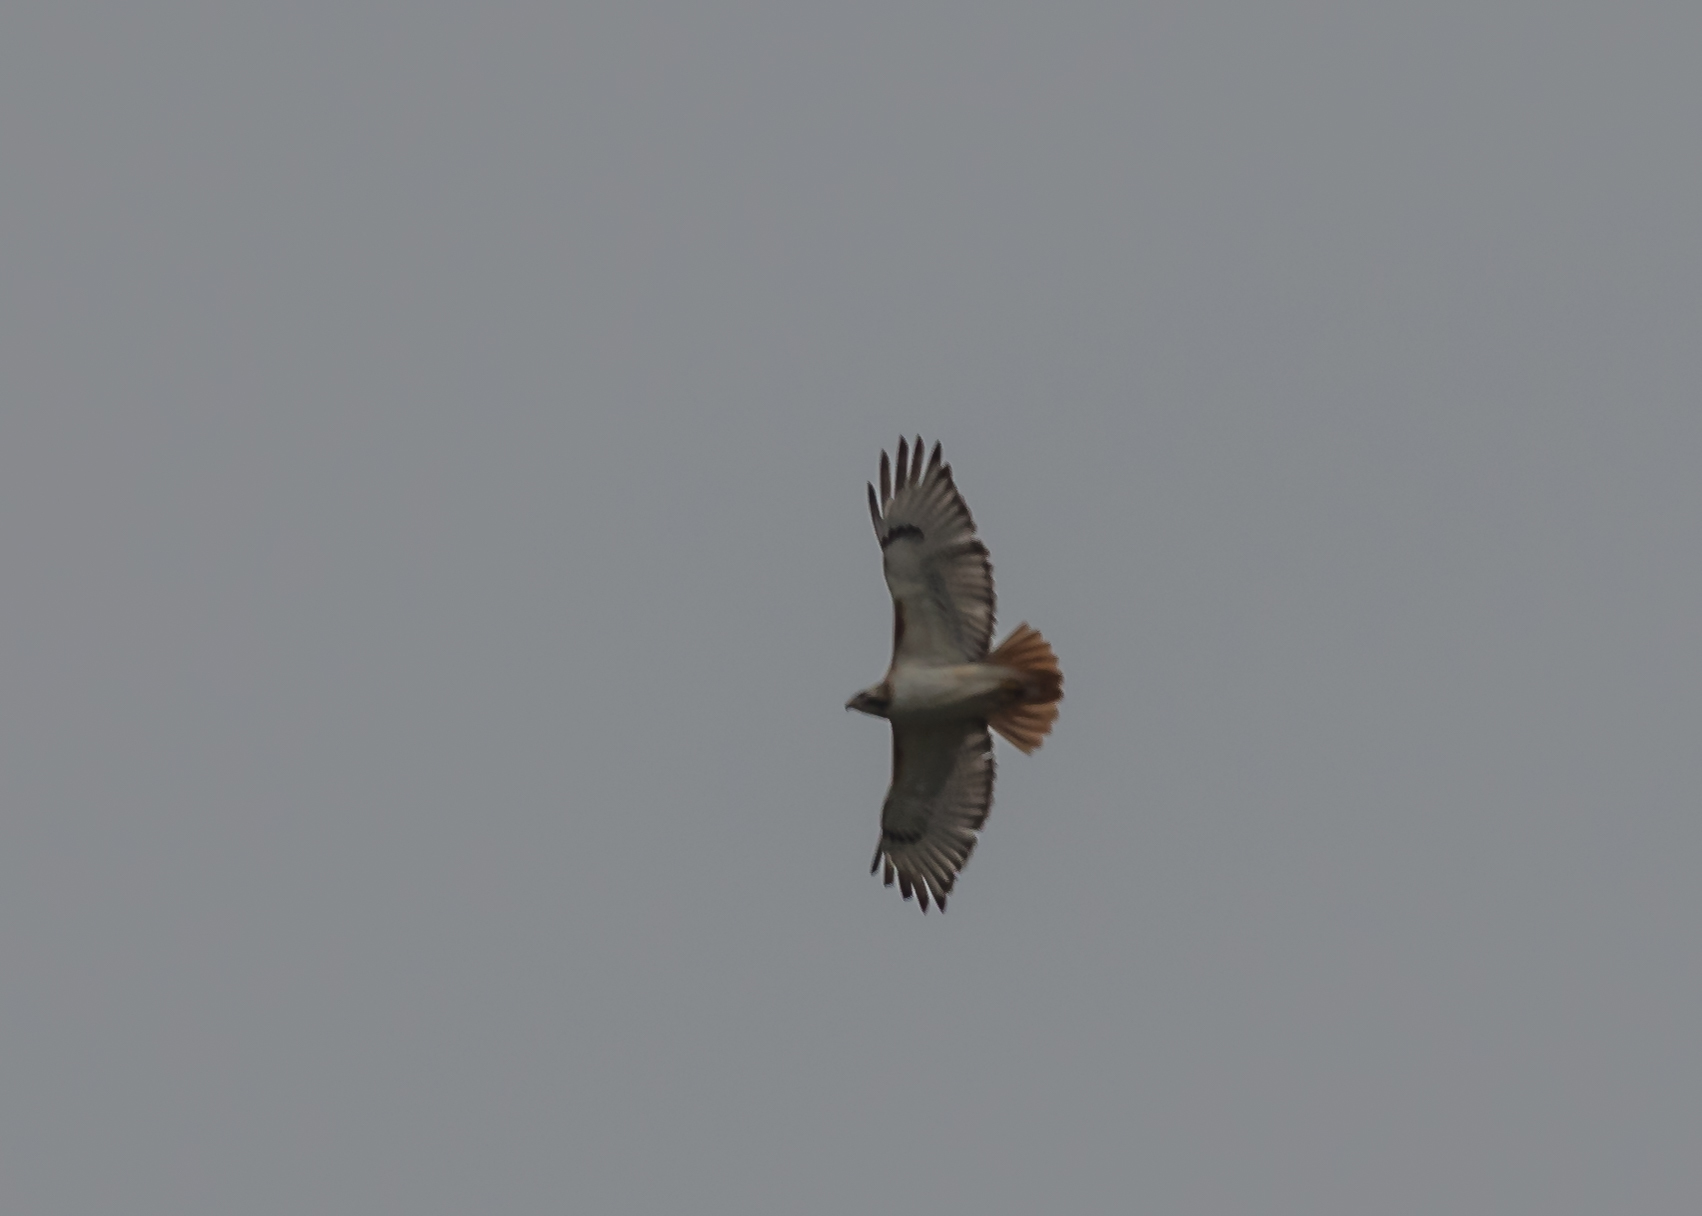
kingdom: Animalia
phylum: Chordata
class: Aves
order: Accipitriformes
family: Accipitridae
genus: Buteo
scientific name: Buteo jamaicensis
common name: Red-tailed hawk
